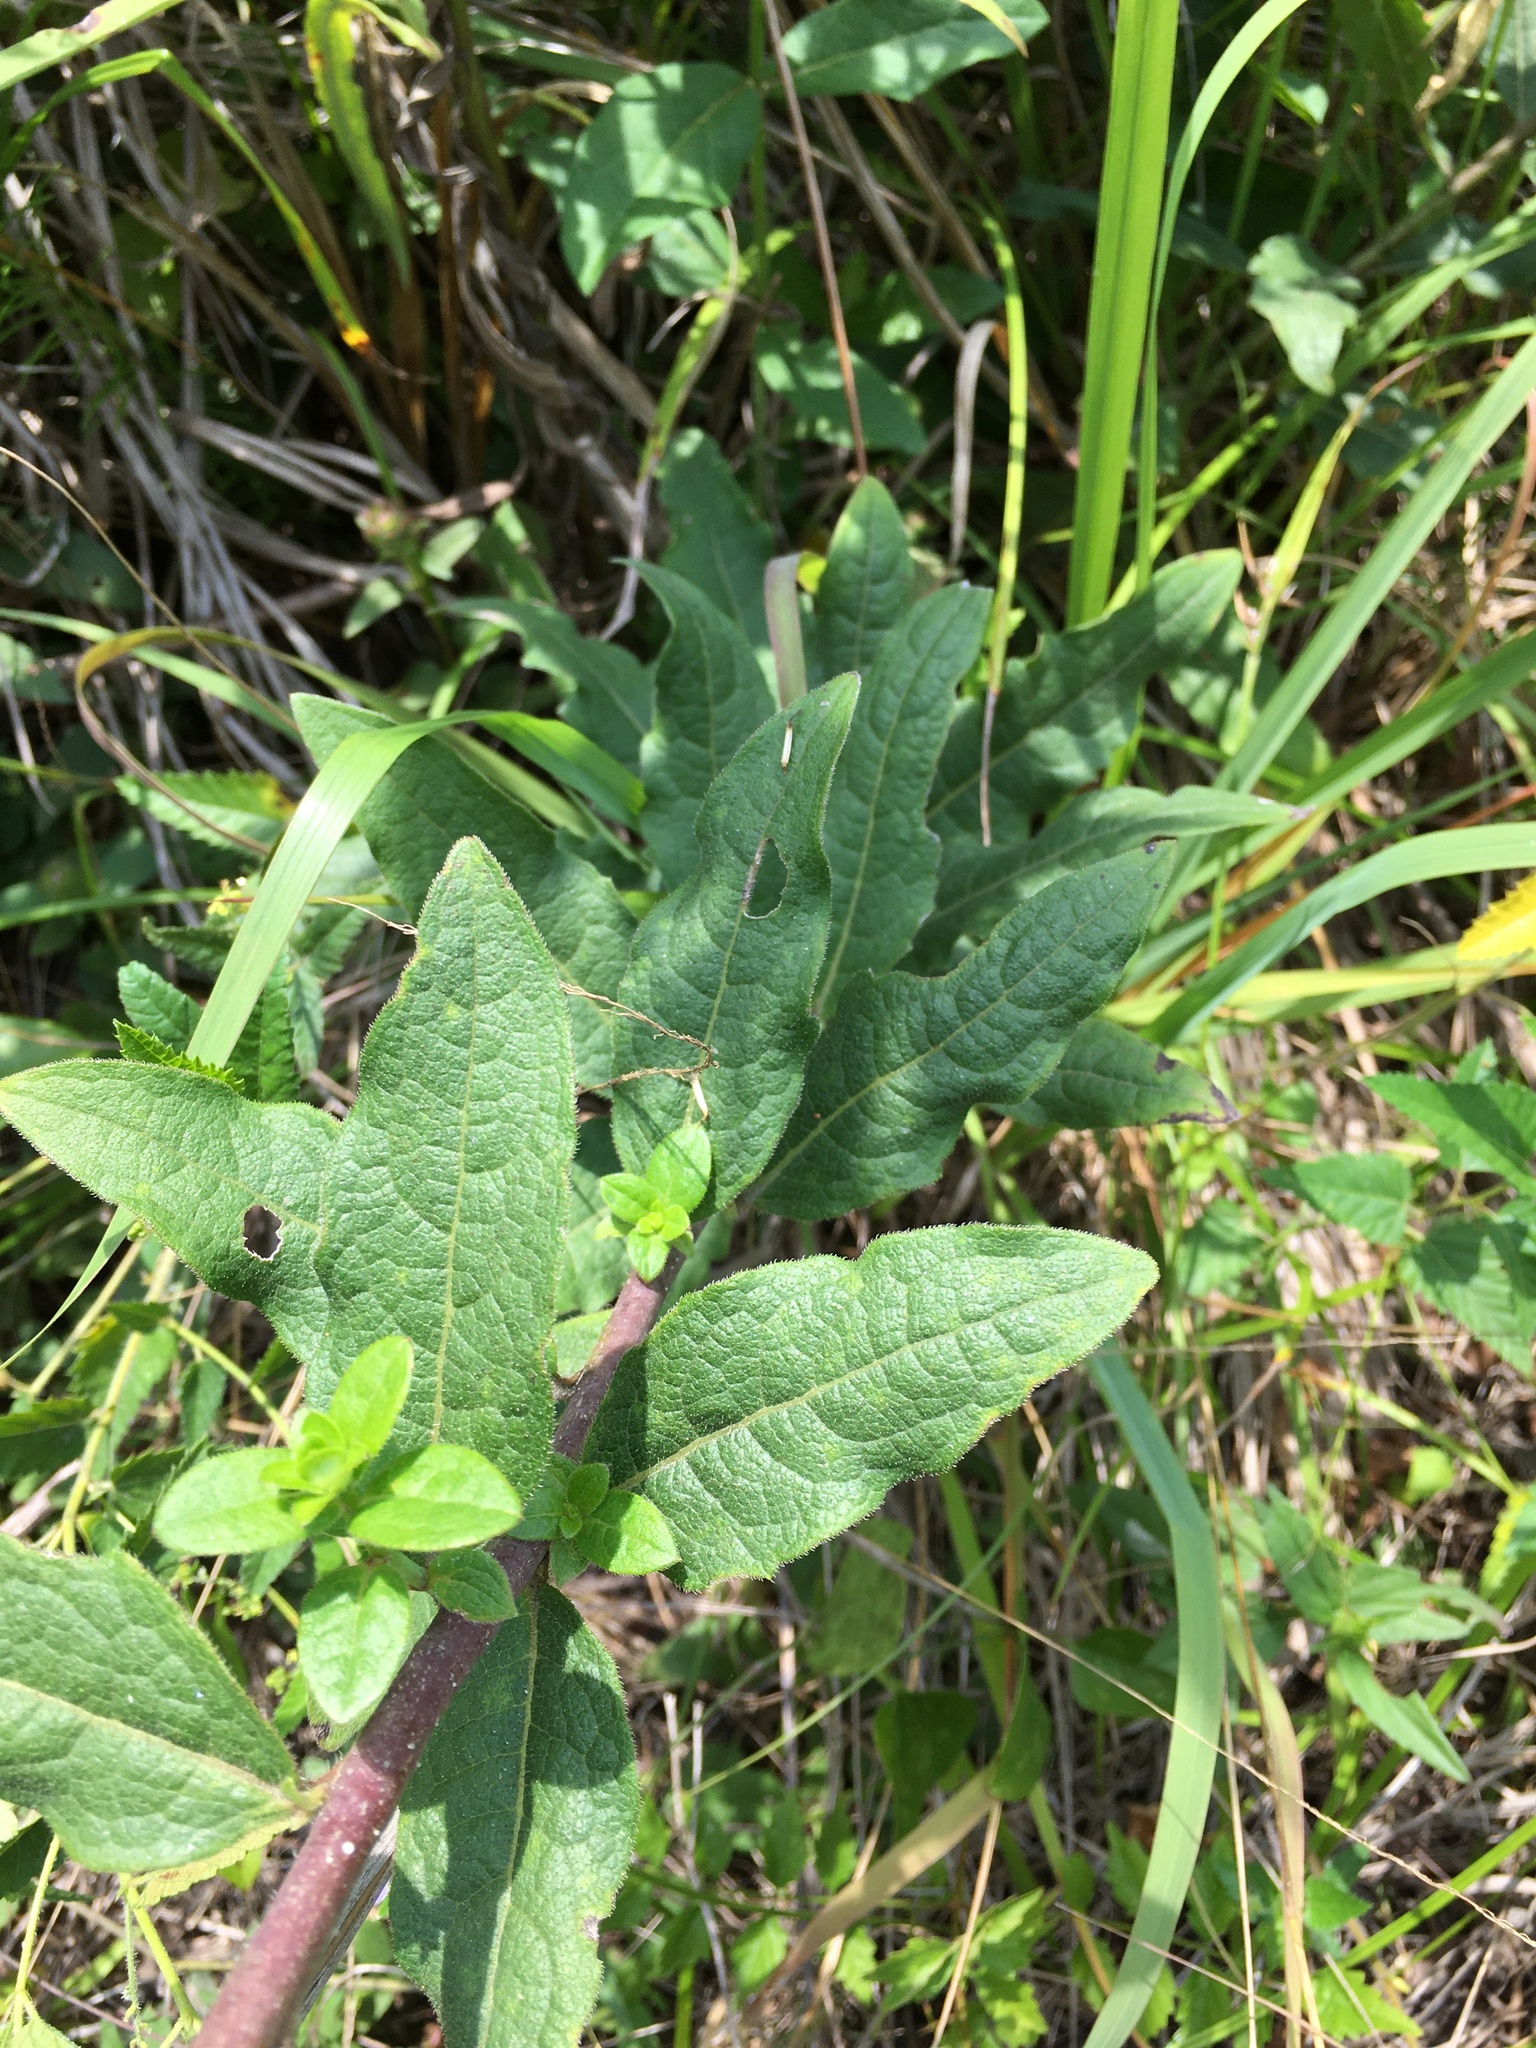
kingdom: Plantae
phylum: Tracheophyta
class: Magnoliopsida
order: Asterales
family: Asteraceae
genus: Silphium
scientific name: Silphium asteriscus
